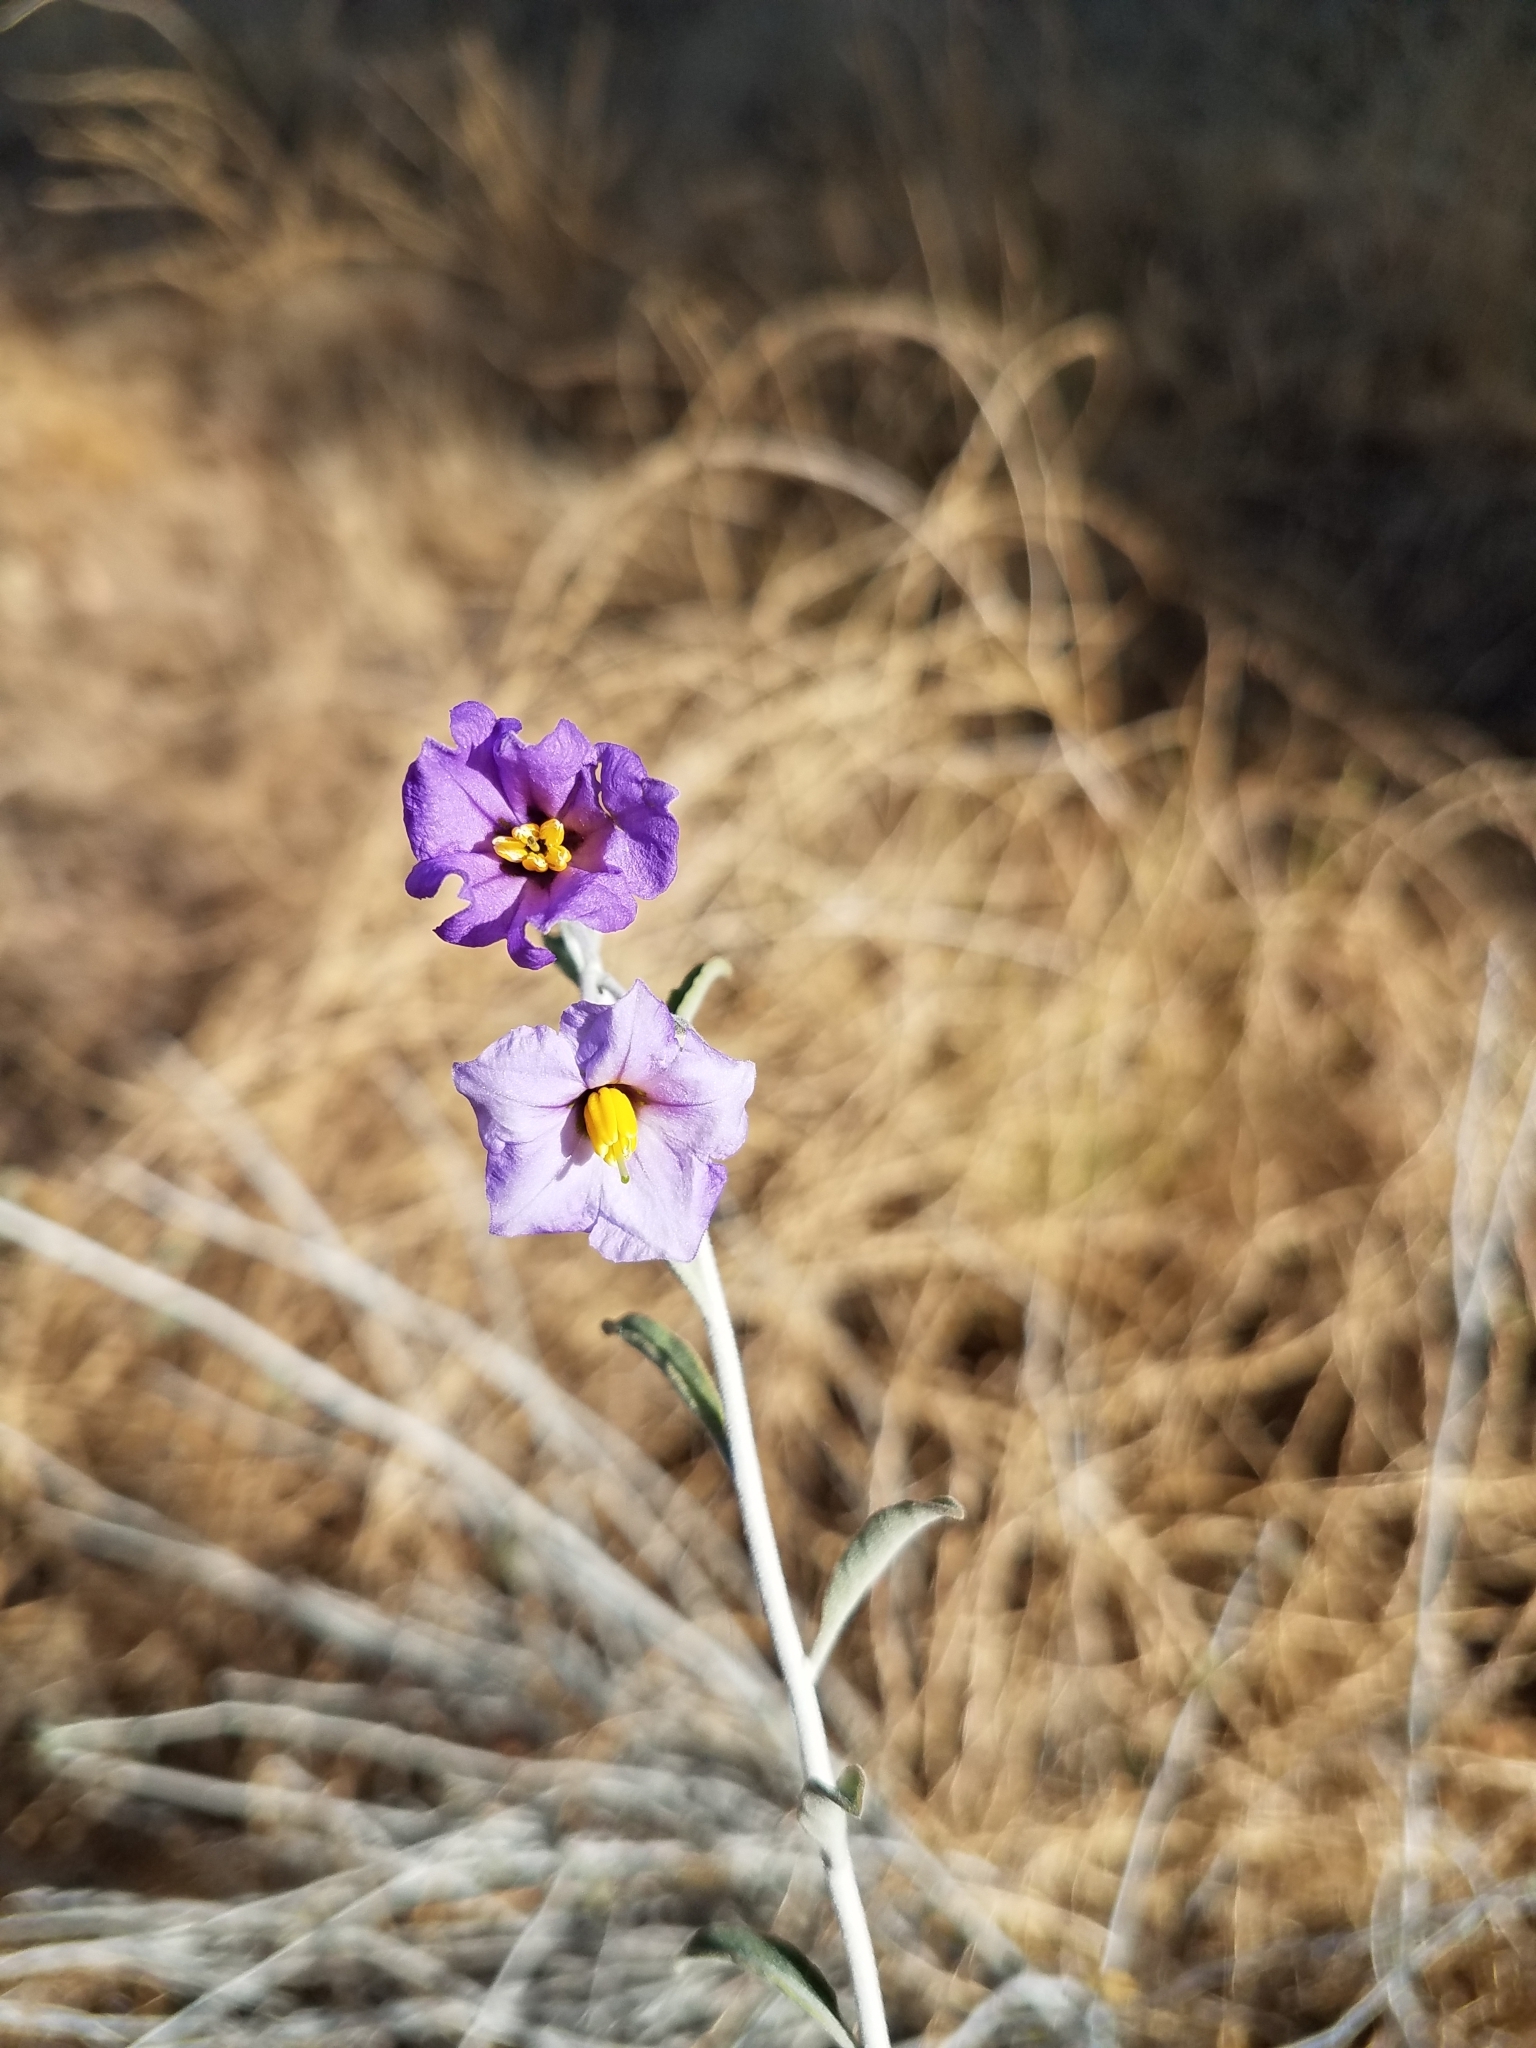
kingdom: Plantae
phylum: Tracheophyta
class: Magnoliopsida
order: Solanales
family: Solanaceae
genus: Solanum
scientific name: Solanum umbelliferum
